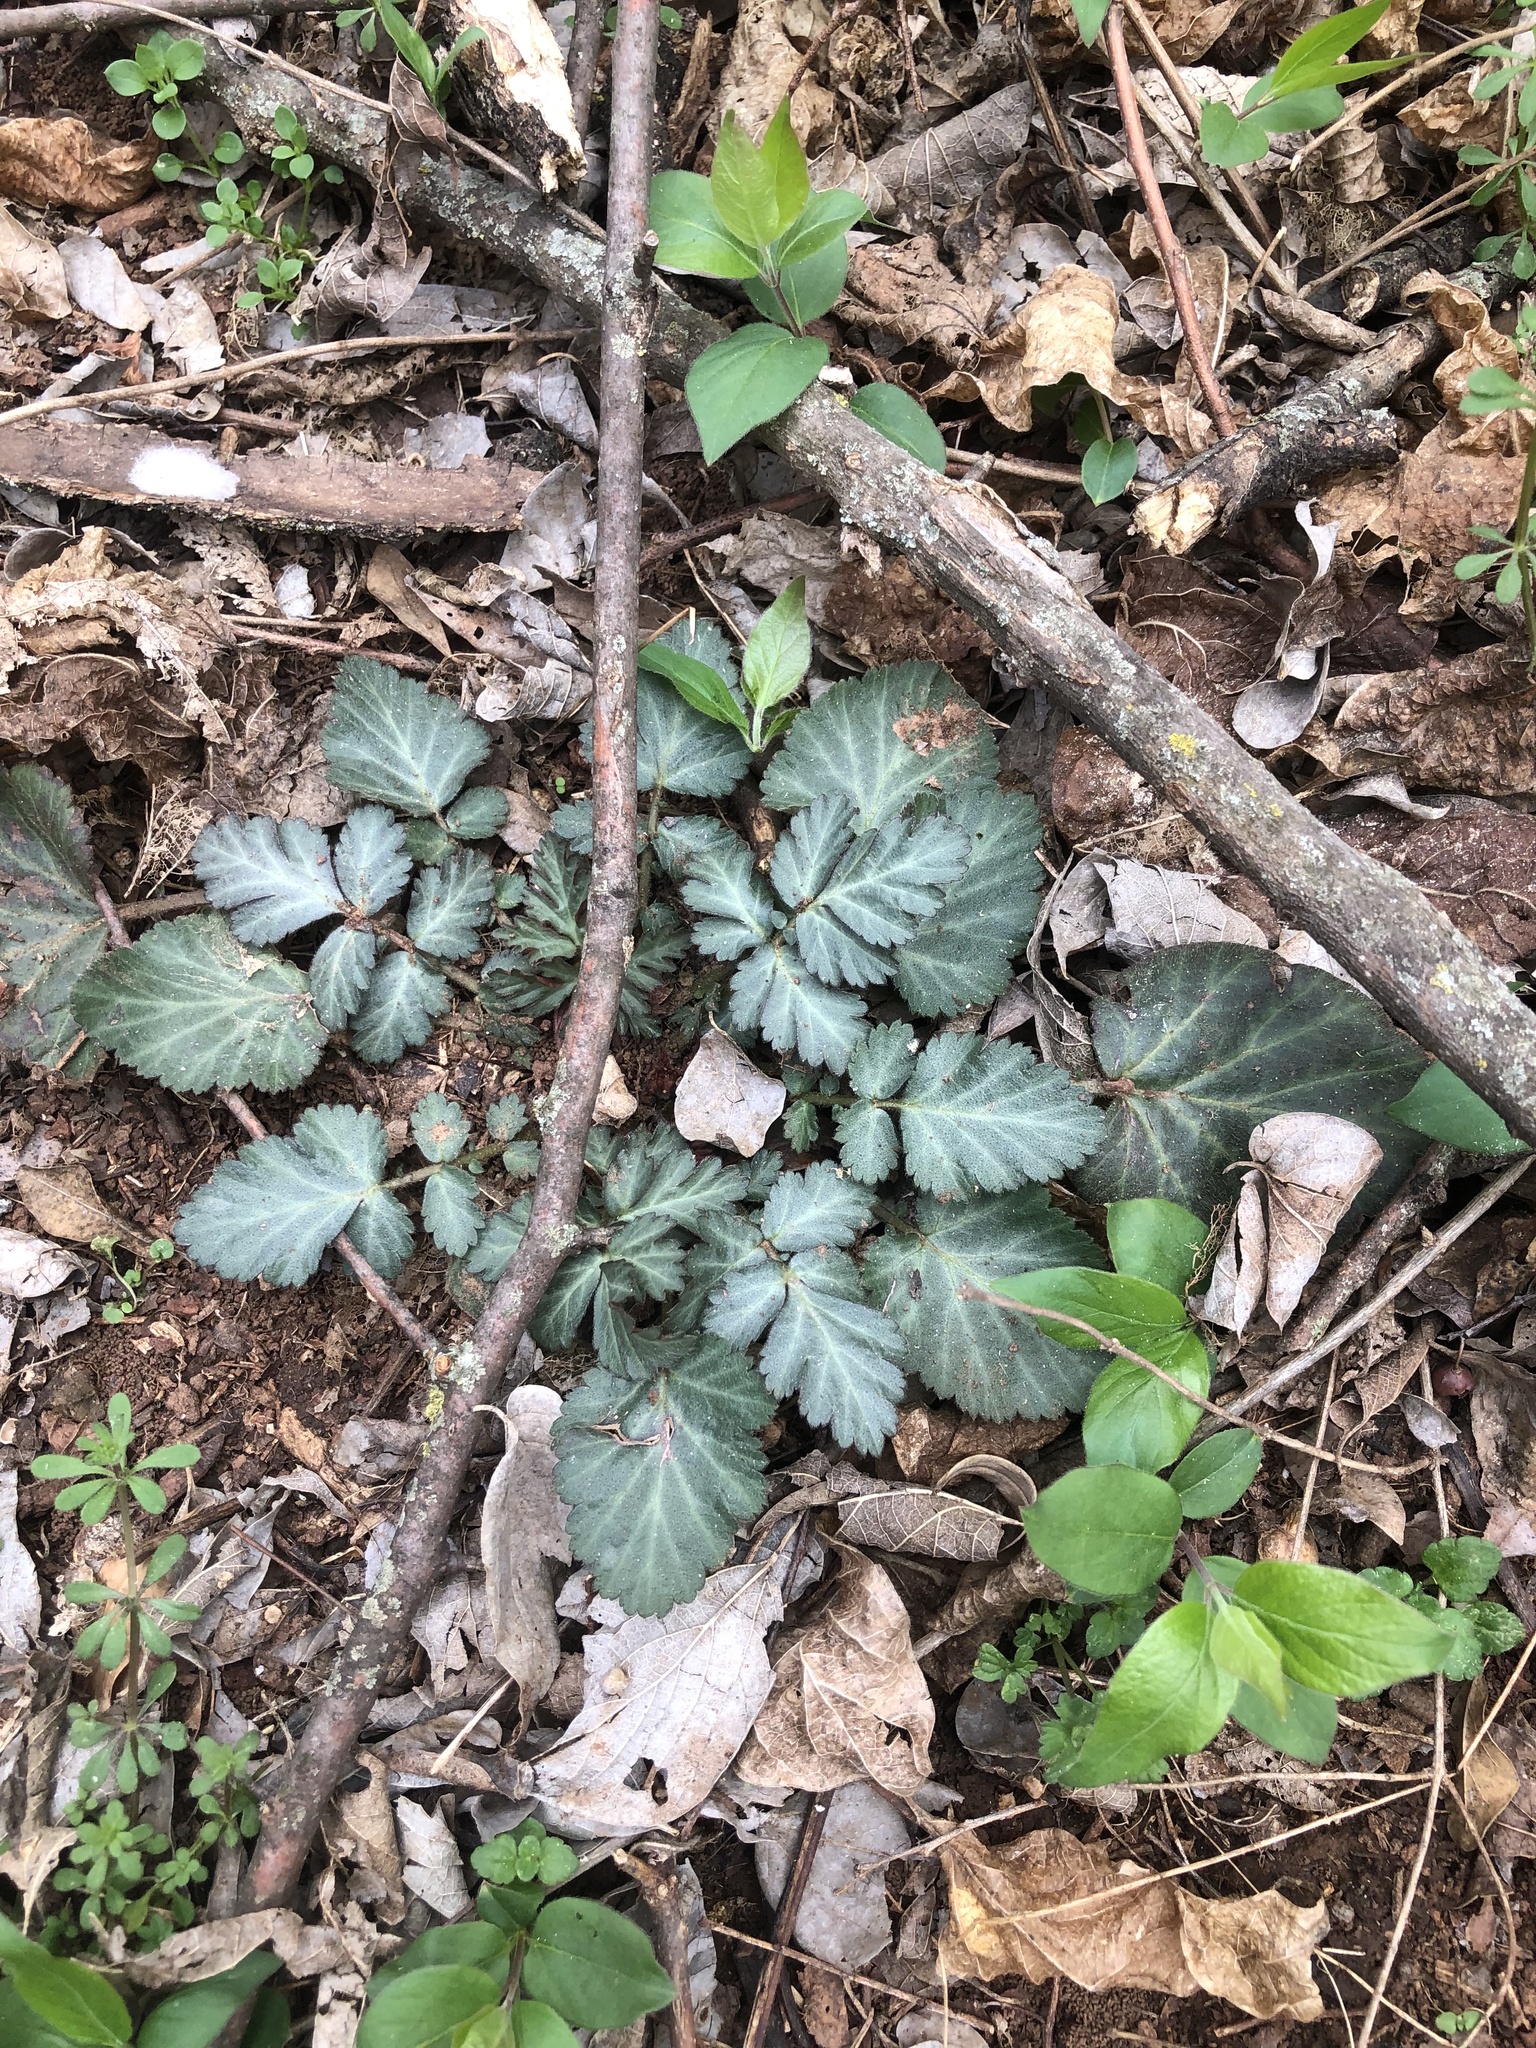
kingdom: Plantae
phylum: Tracheophyta
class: Magnoliopsida
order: Rosales
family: Rosaceae
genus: Geum
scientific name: Geum canadense
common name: White avens
